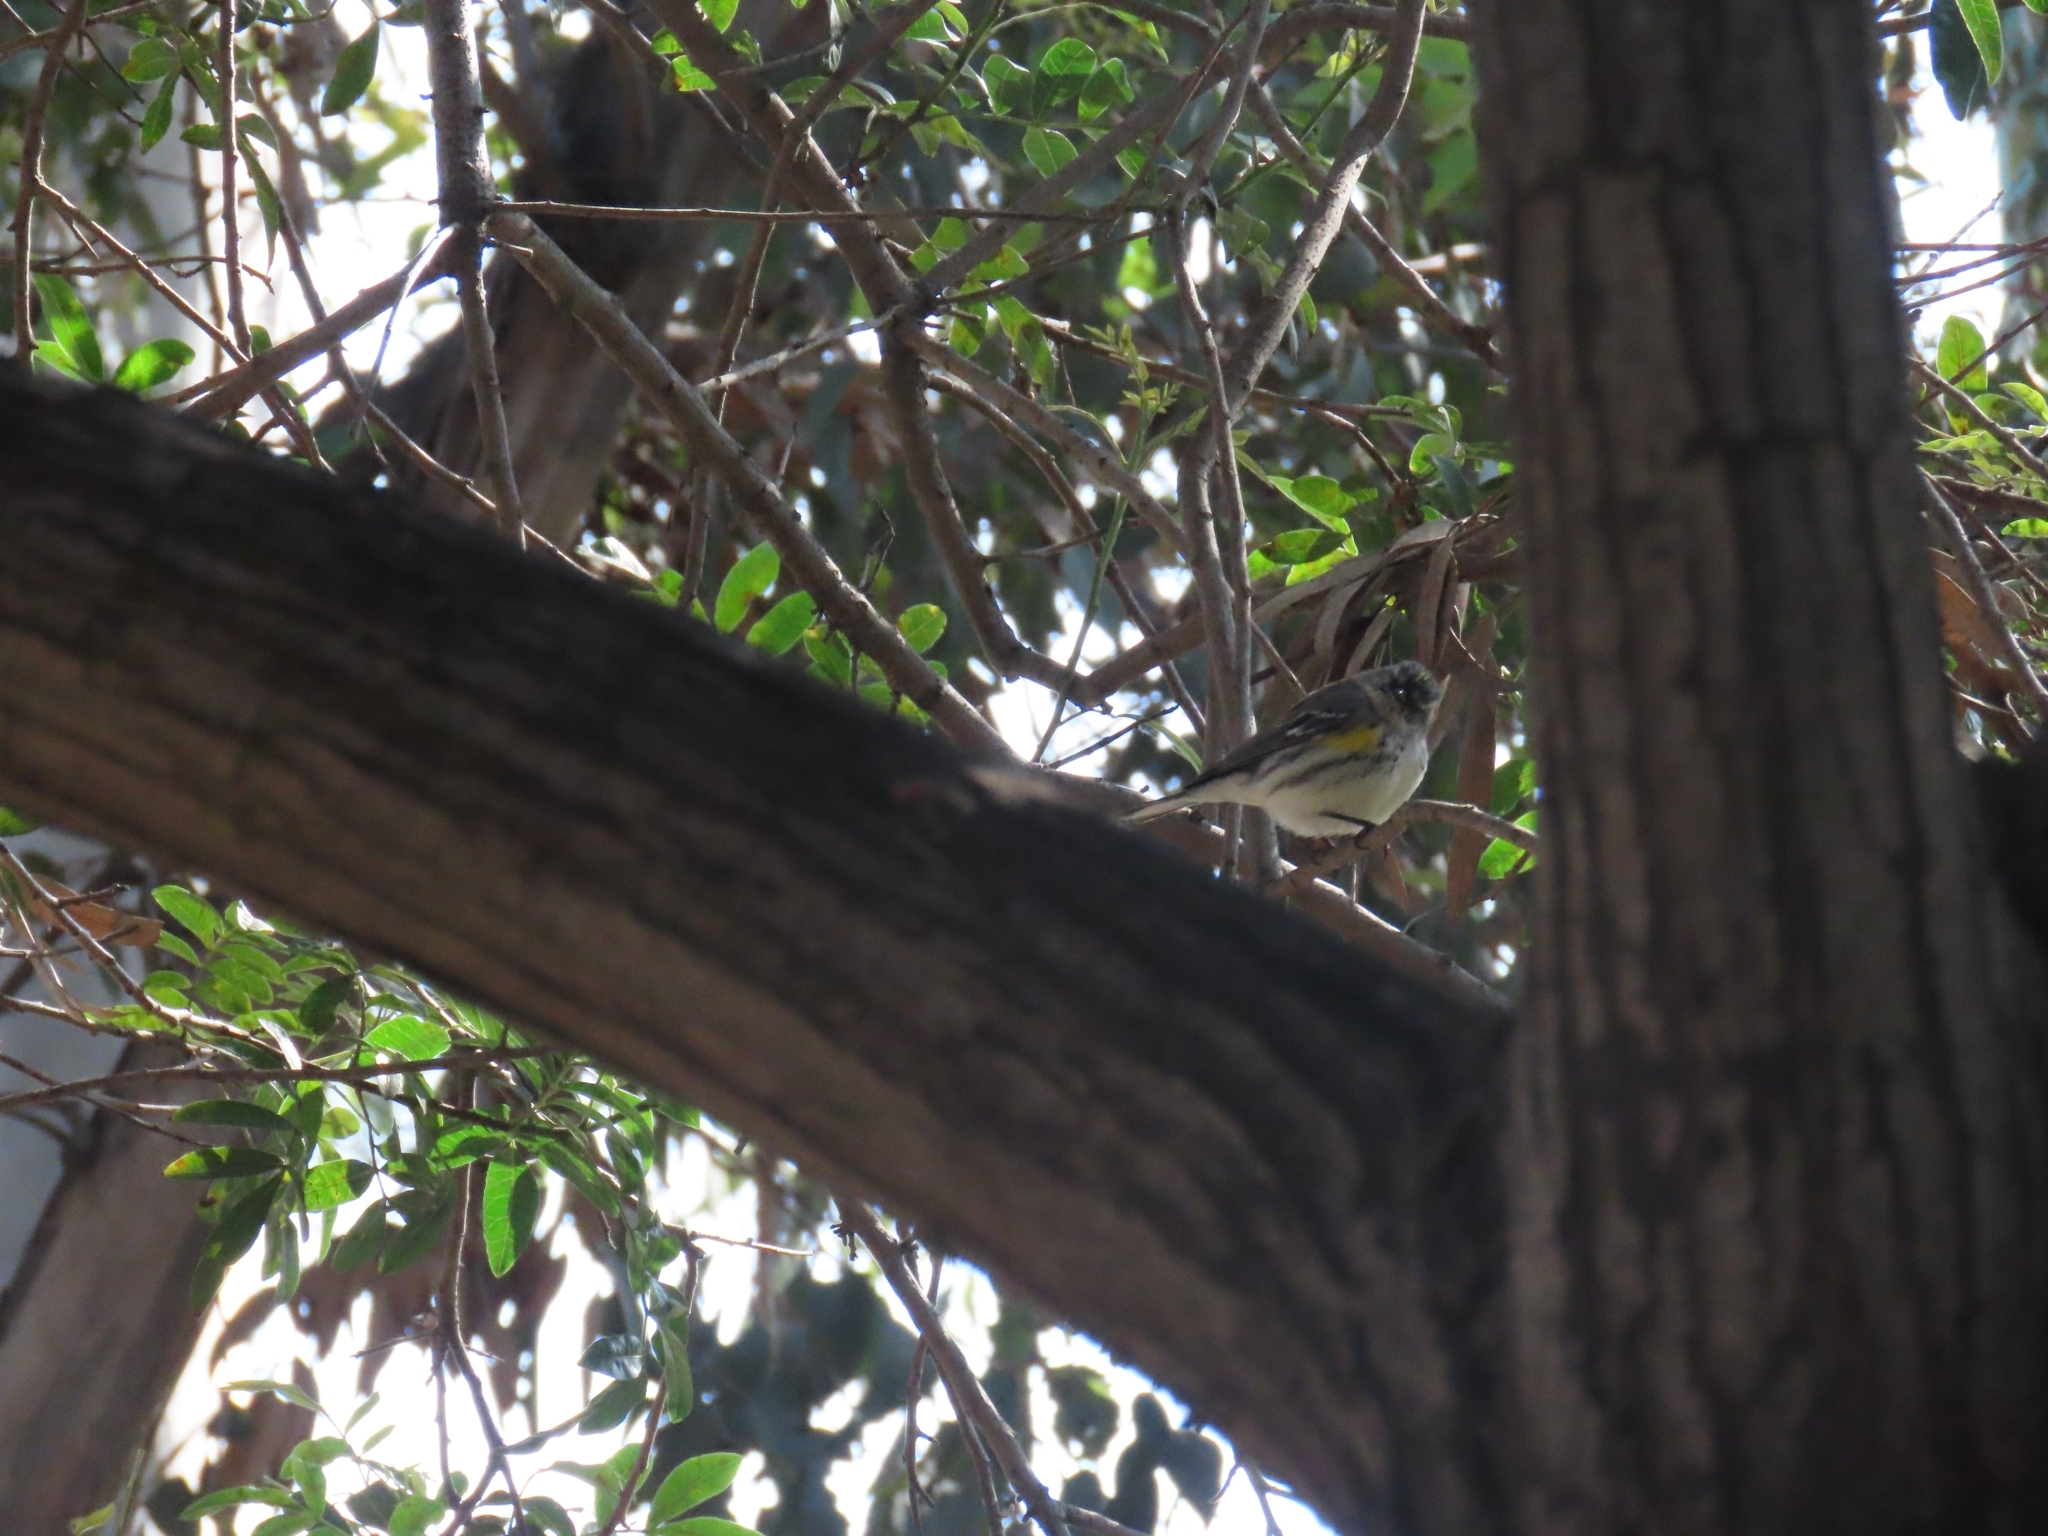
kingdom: Animalia
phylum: Chordata
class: Aves
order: Passeriformes
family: Parulidae
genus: Setophaga
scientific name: Setophaga coronata
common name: Myrtle warbler
